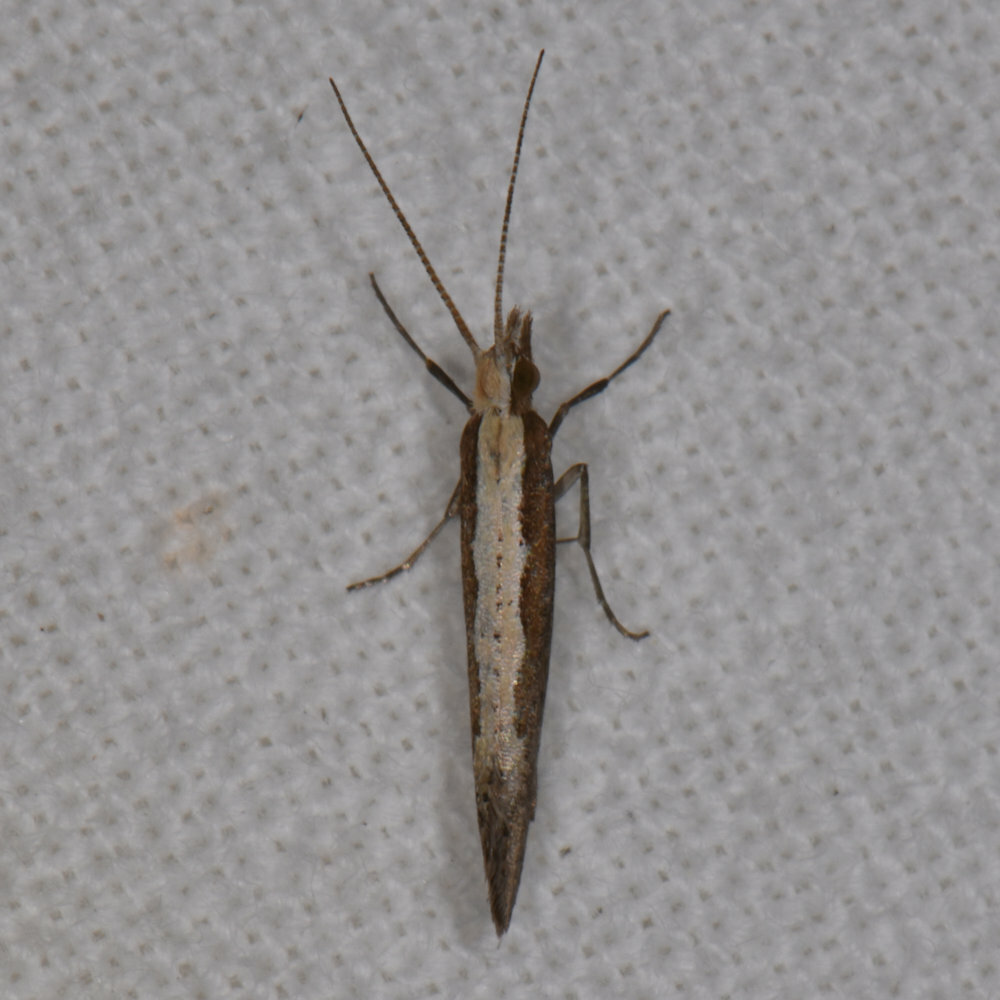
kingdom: Animalia
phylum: Arthropoda
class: Insecta
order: Lepidoptera
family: Plutellidae
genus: Plutella
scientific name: Plutella xylostella
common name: Diamond-back moth
